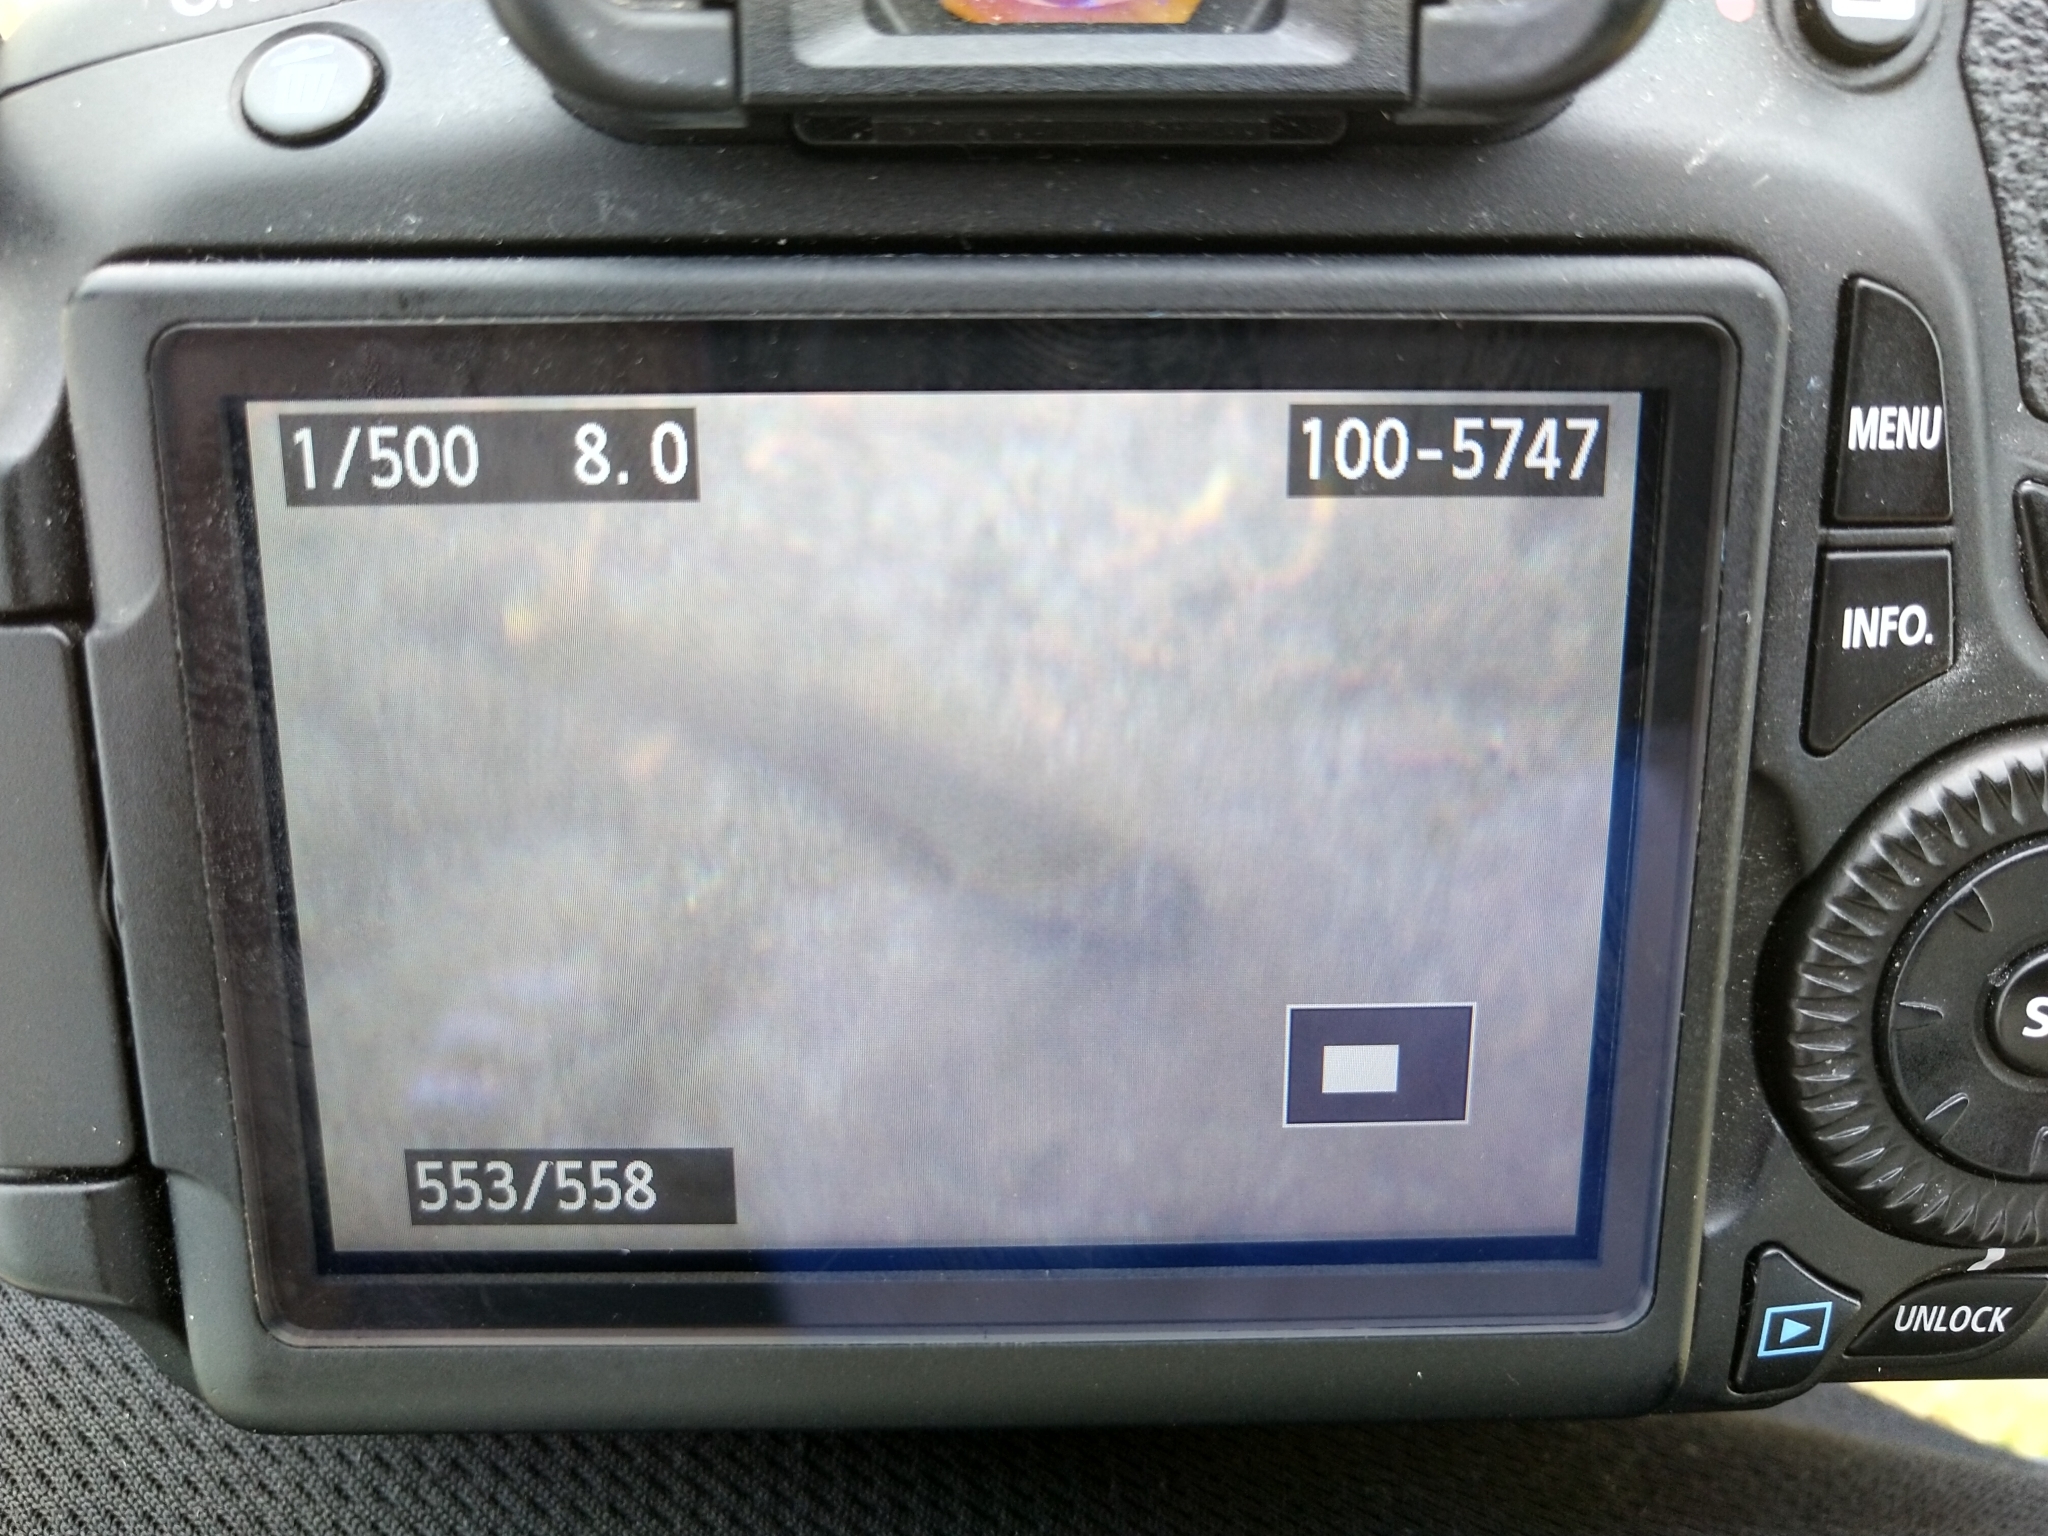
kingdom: Animalia
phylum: Chordata
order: Perciformes
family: Blenniidae
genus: Omobranchus
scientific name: Omobranchus anolius
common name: Oyster blenny
